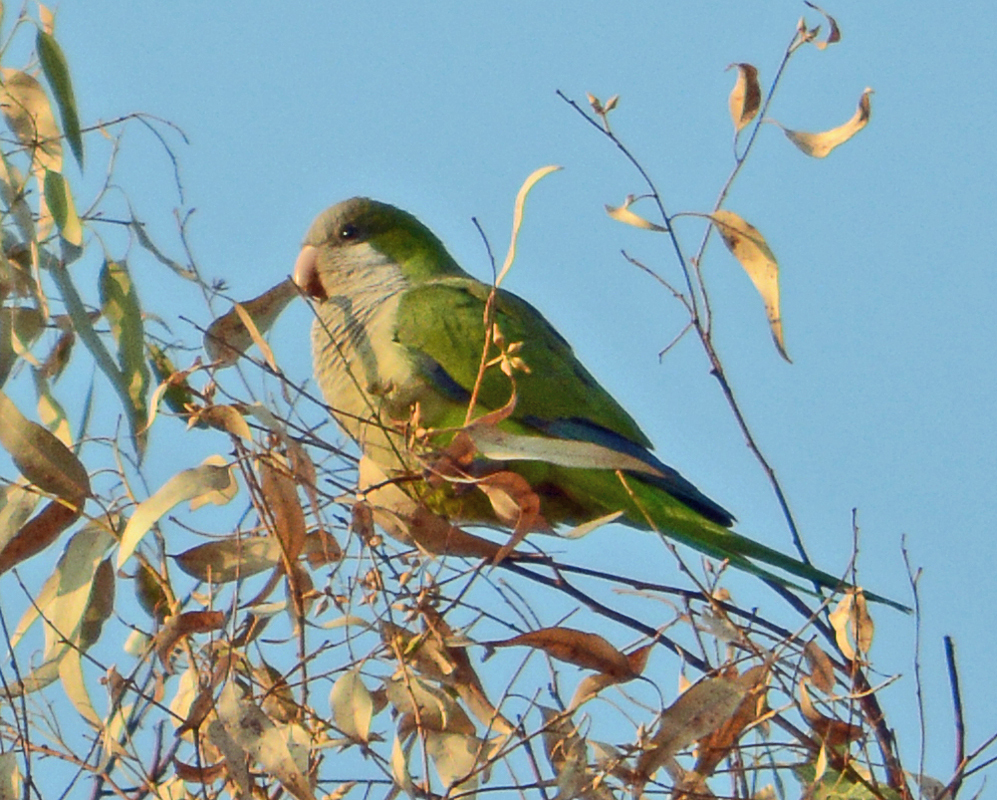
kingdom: Animalia
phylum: Chordata
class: Aves
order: Psittaciformes
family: Psittacidae
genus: Myiopsitta
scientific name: Myiopsitta monachus
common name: Monk parakeet
